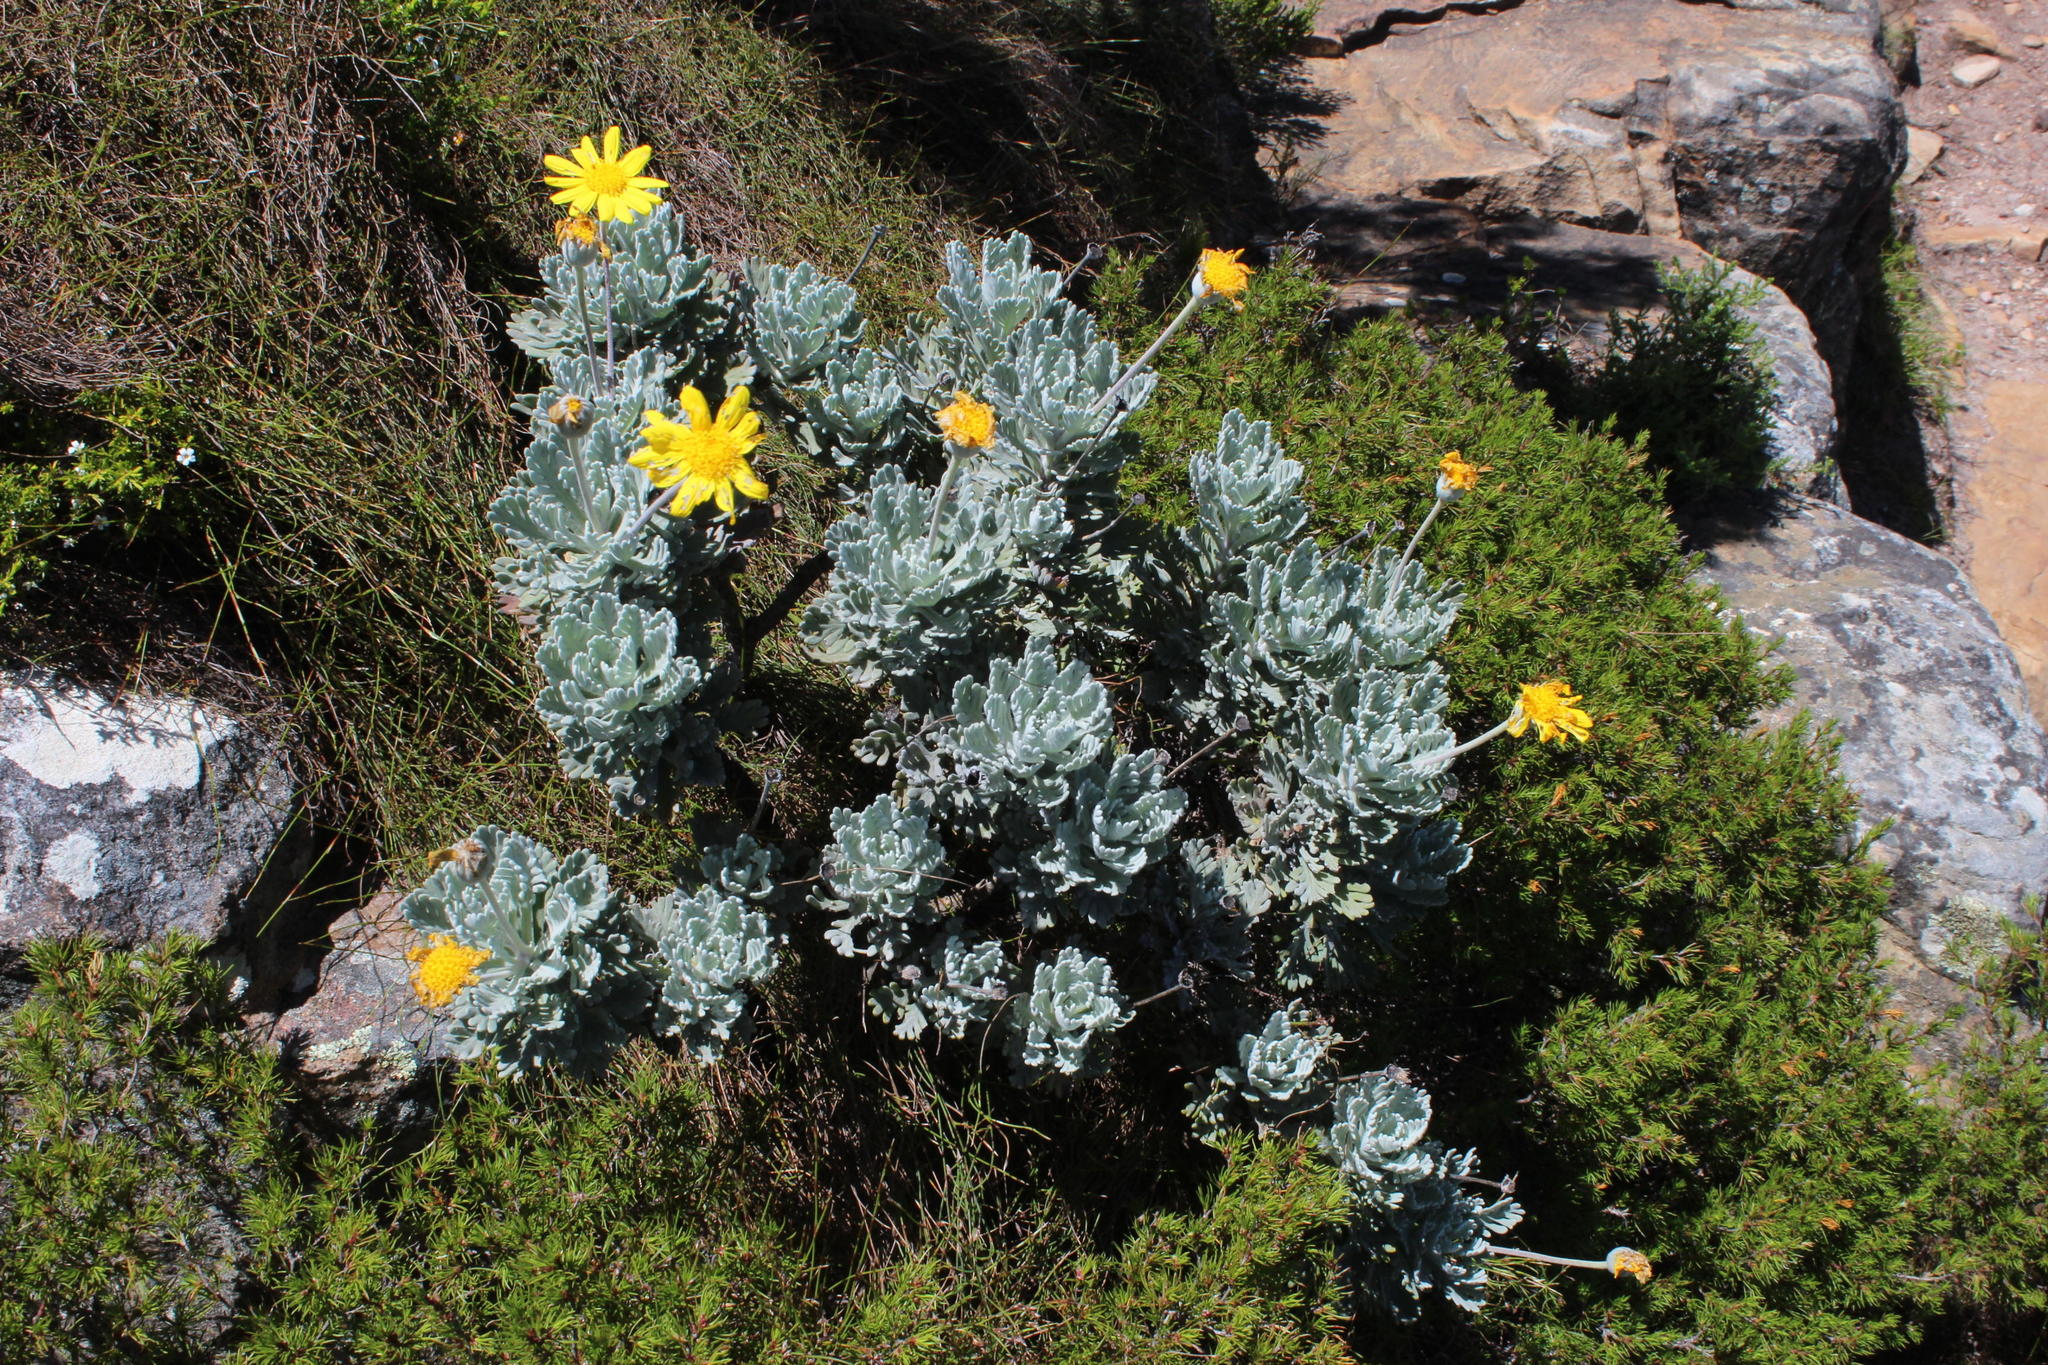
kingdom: Plantae
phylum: Tracheophyta
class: Magnoliopsida
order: Asterales
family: Asteraceae
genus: Euryops
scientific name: Euryops pectinatus
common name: Gray-leaf euryops
